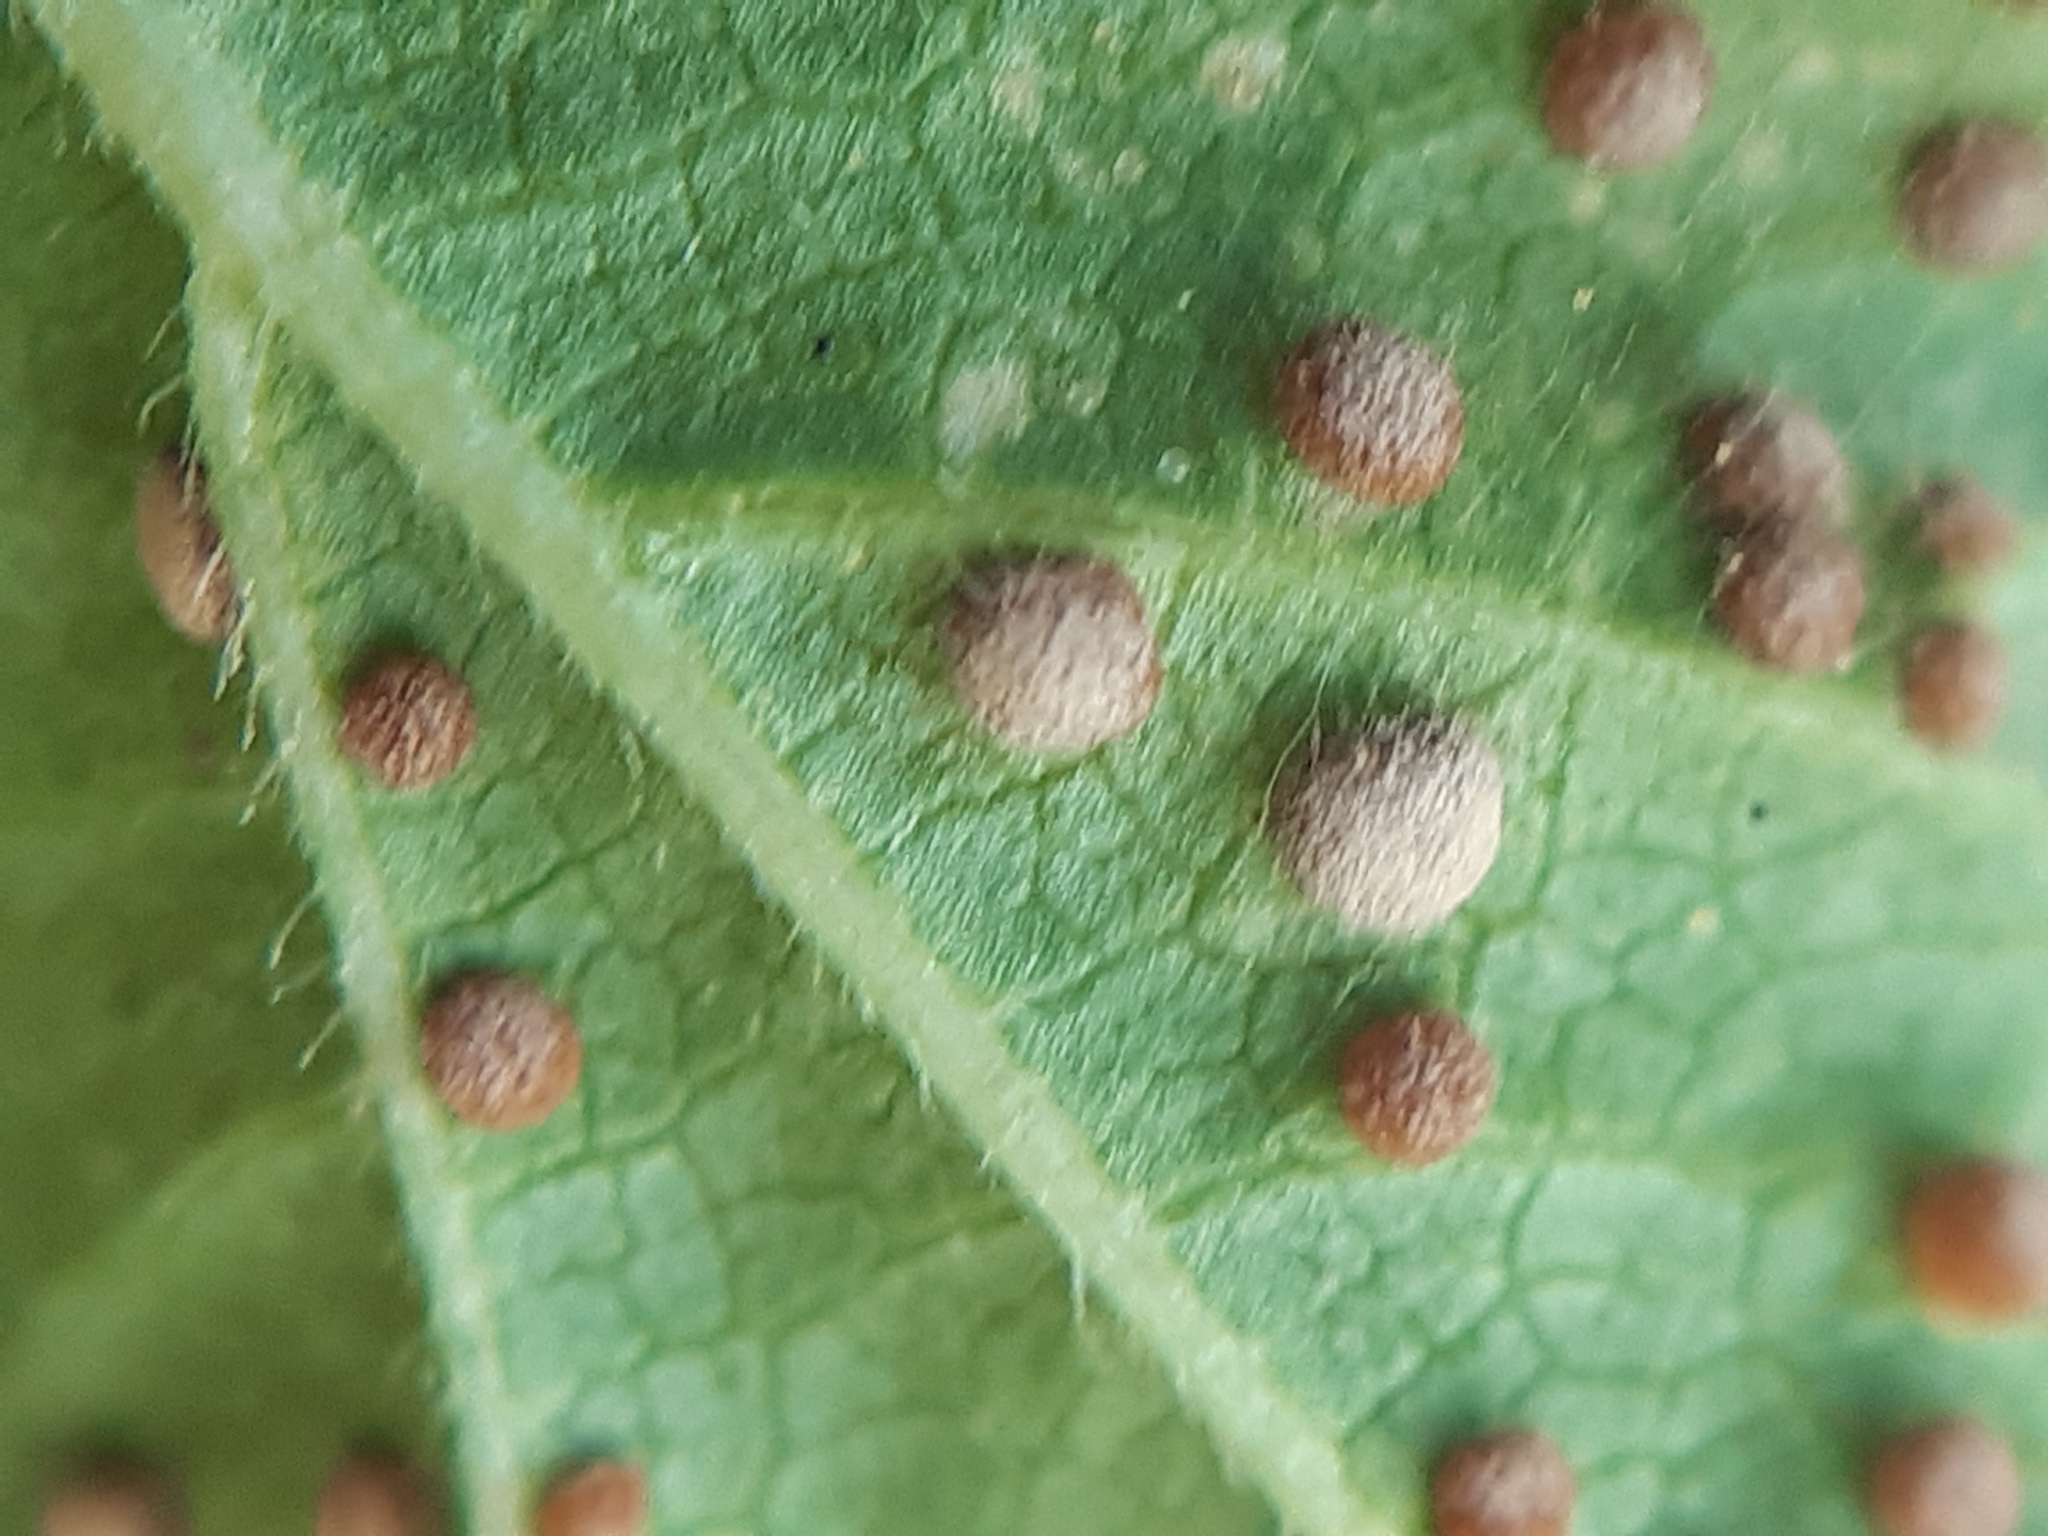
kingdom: Fungi
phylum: Basidiomycota
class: Pucciniomycetes
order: Pucciniales
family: Pucciniaceae
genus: Puccinia
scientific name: Puccinia malvacearum
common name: Hollyhock rust
